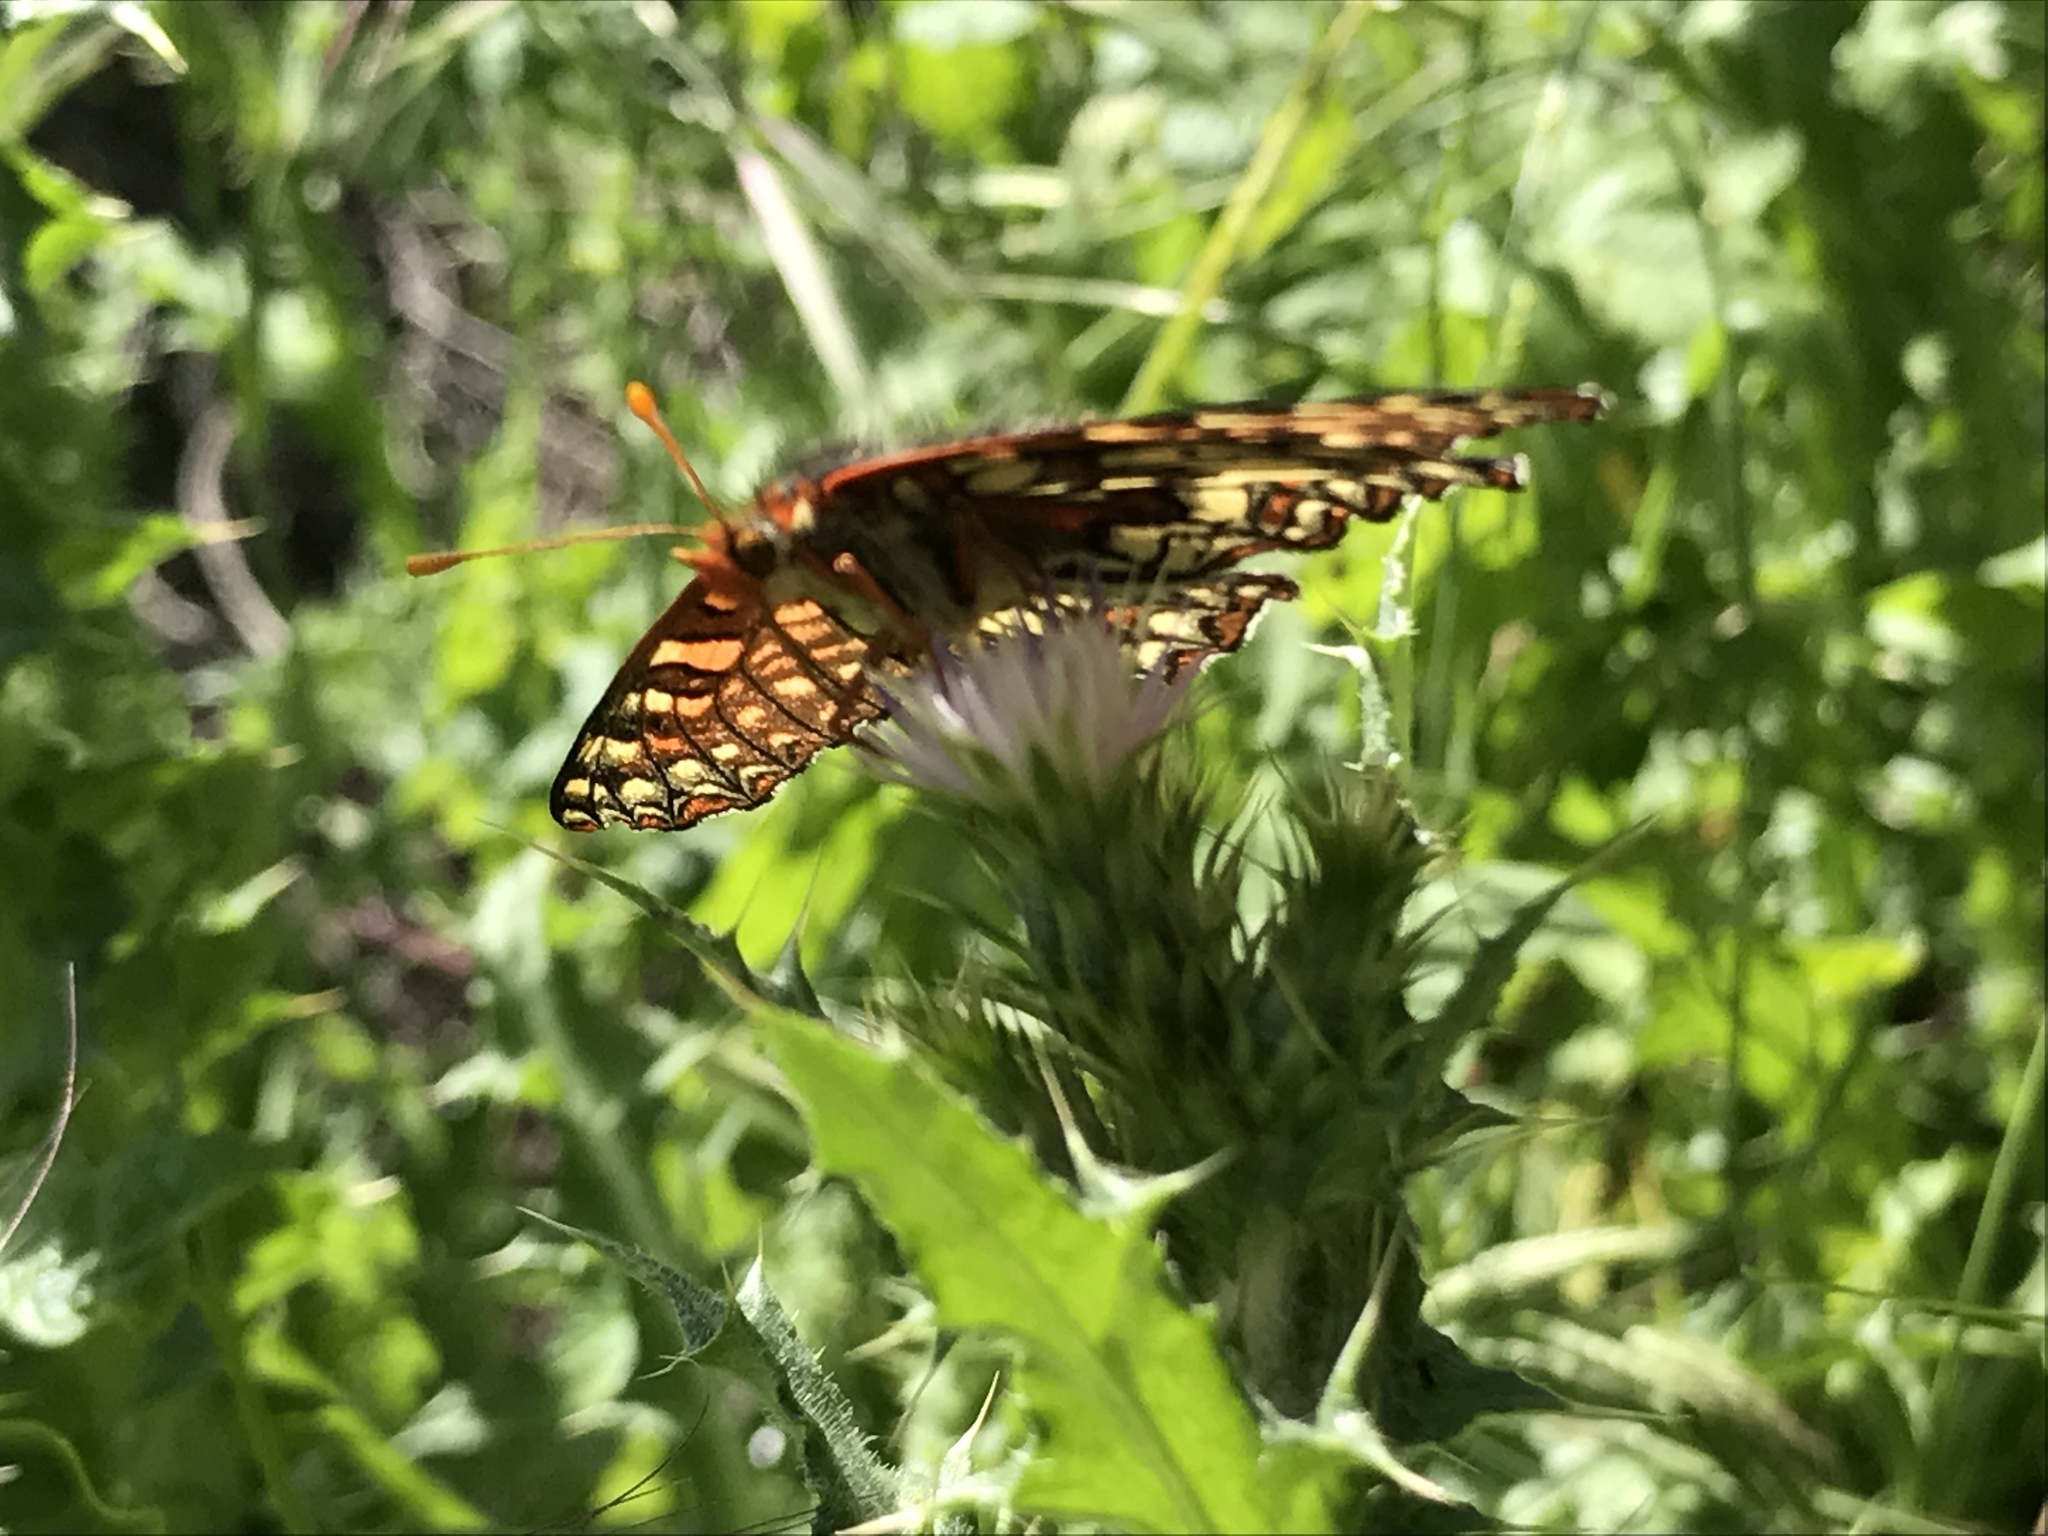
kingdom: Animalia
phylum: Arthropoda
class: Insecta
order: Lepidoptera
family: Nymphalidae
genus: Occidryas
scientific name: Occidryas chalcedona
